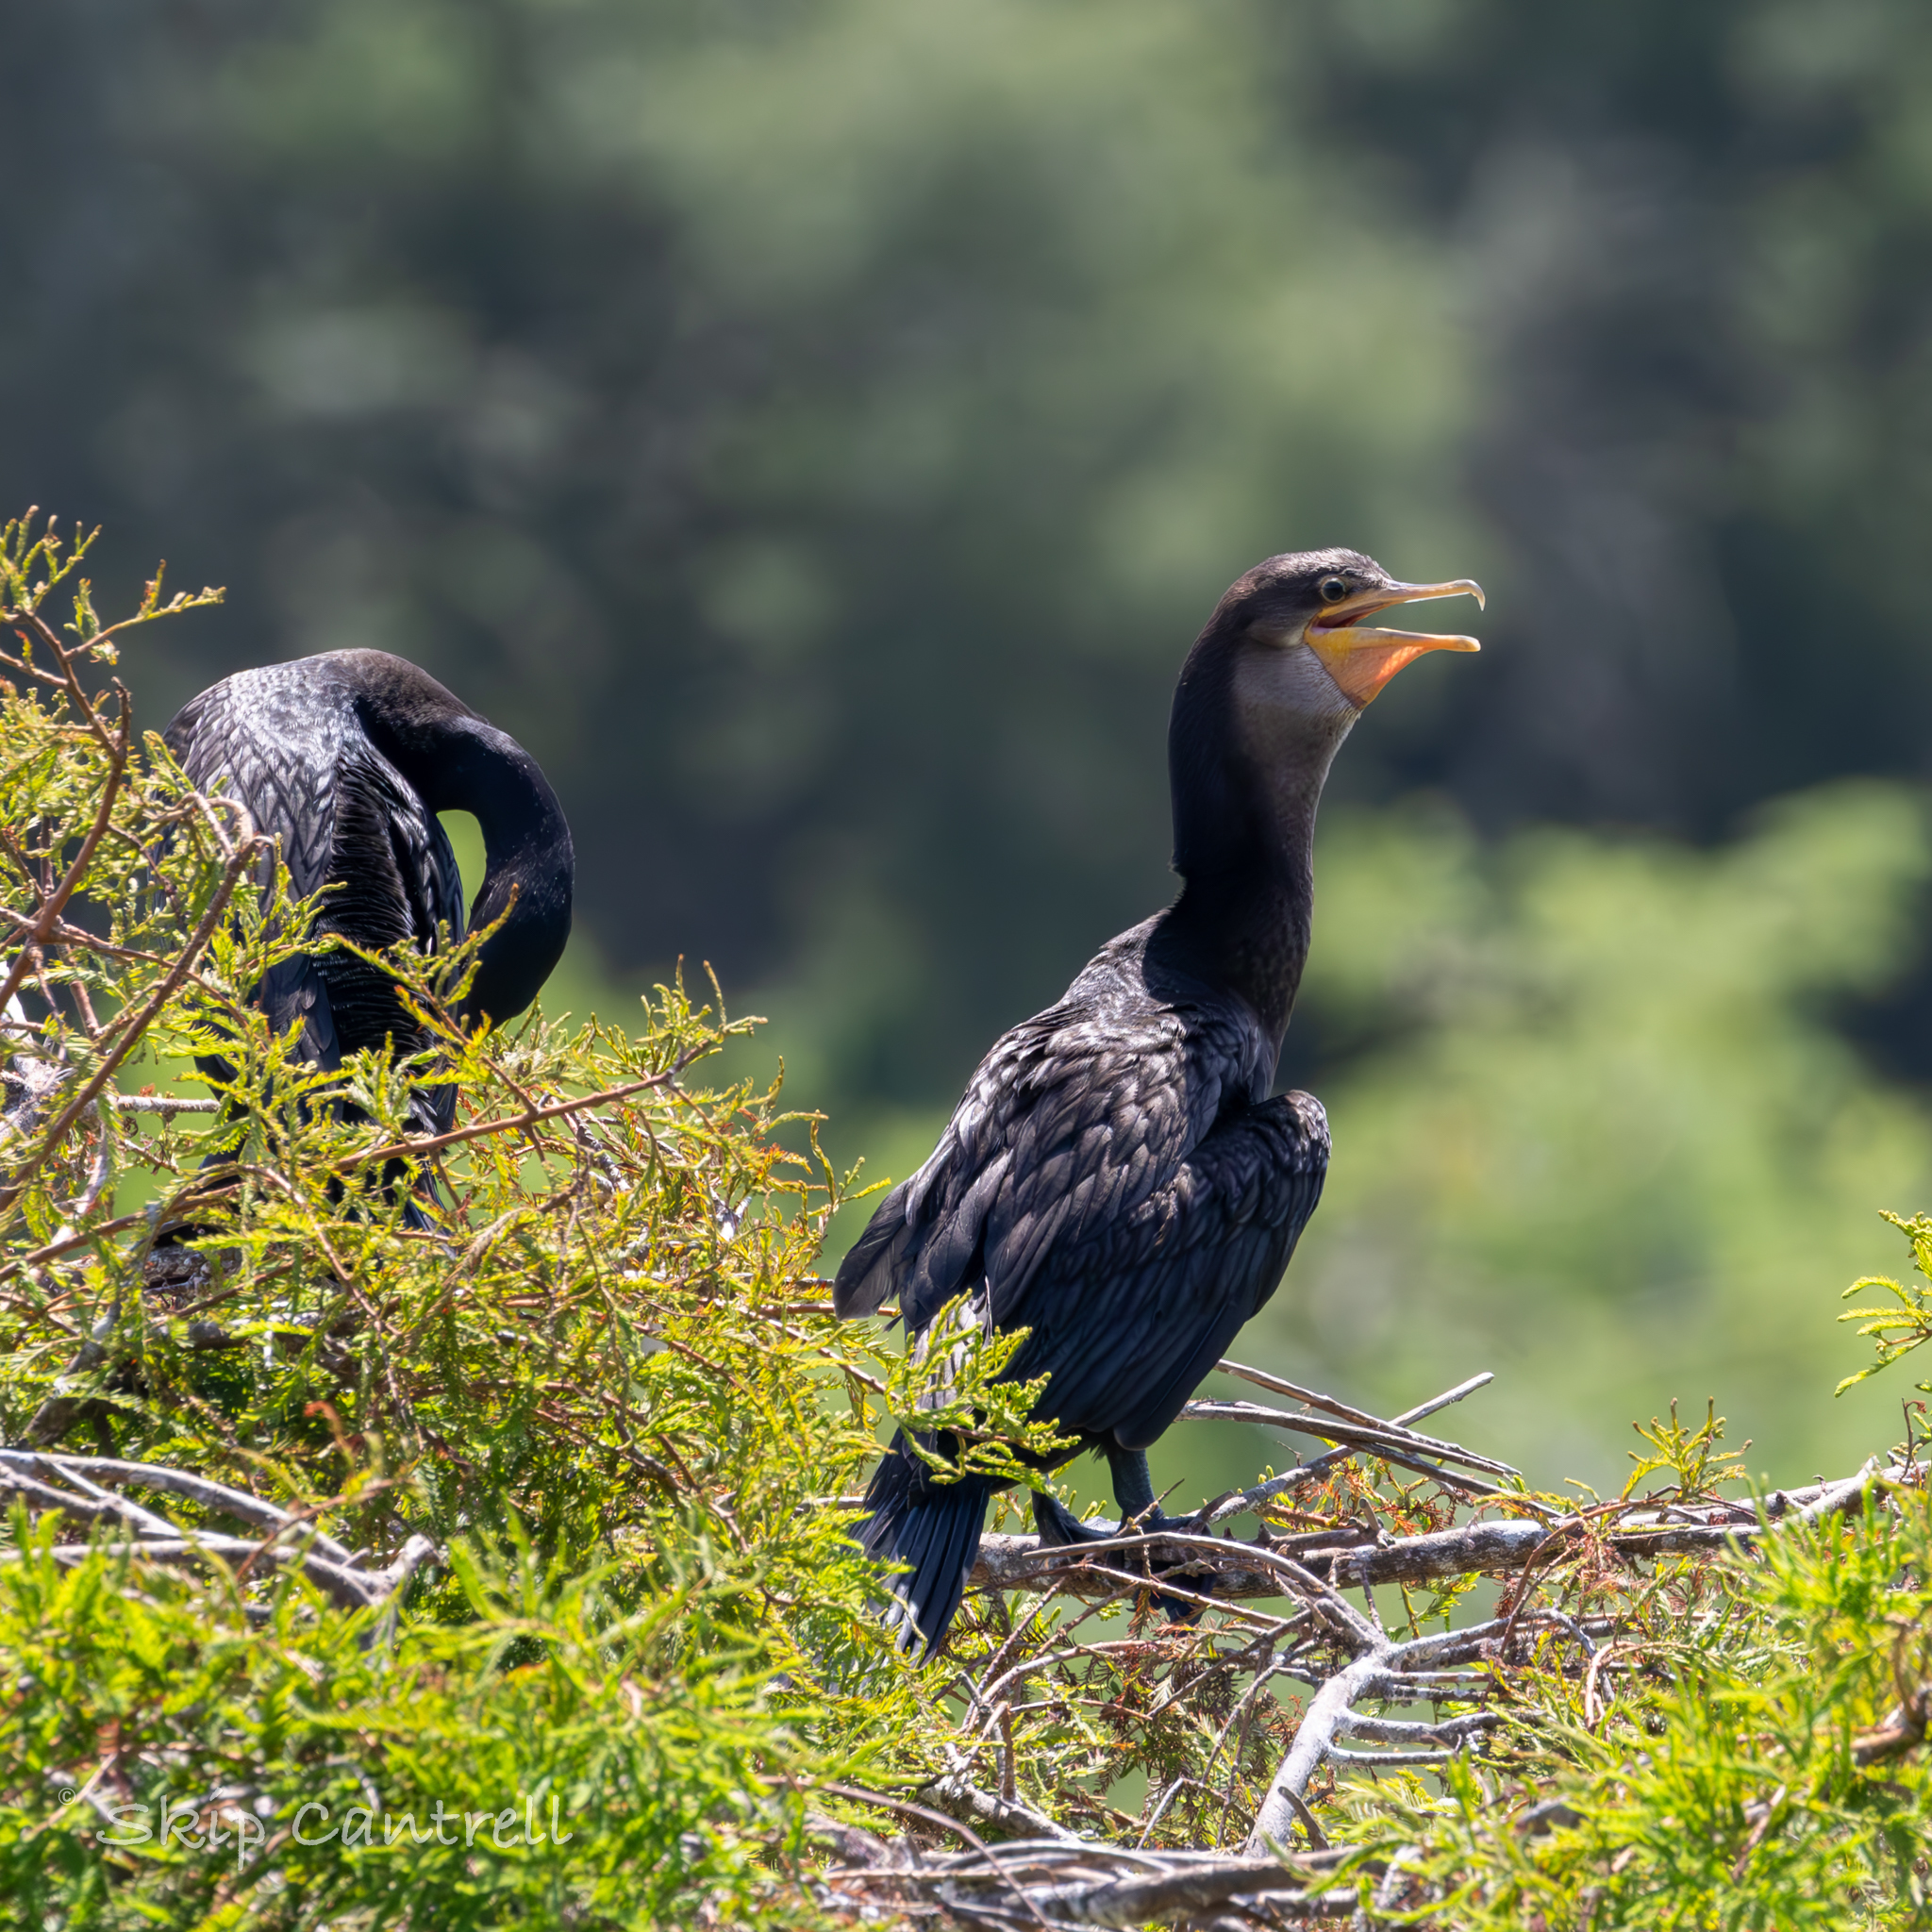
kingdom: Animalia
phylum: Chordata
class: Aves
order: Suliformes
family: Phalacrocoracidae
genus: Phalacrocorax
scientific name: Phalacrocorax brasilianus
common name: Neotropic cormorant
